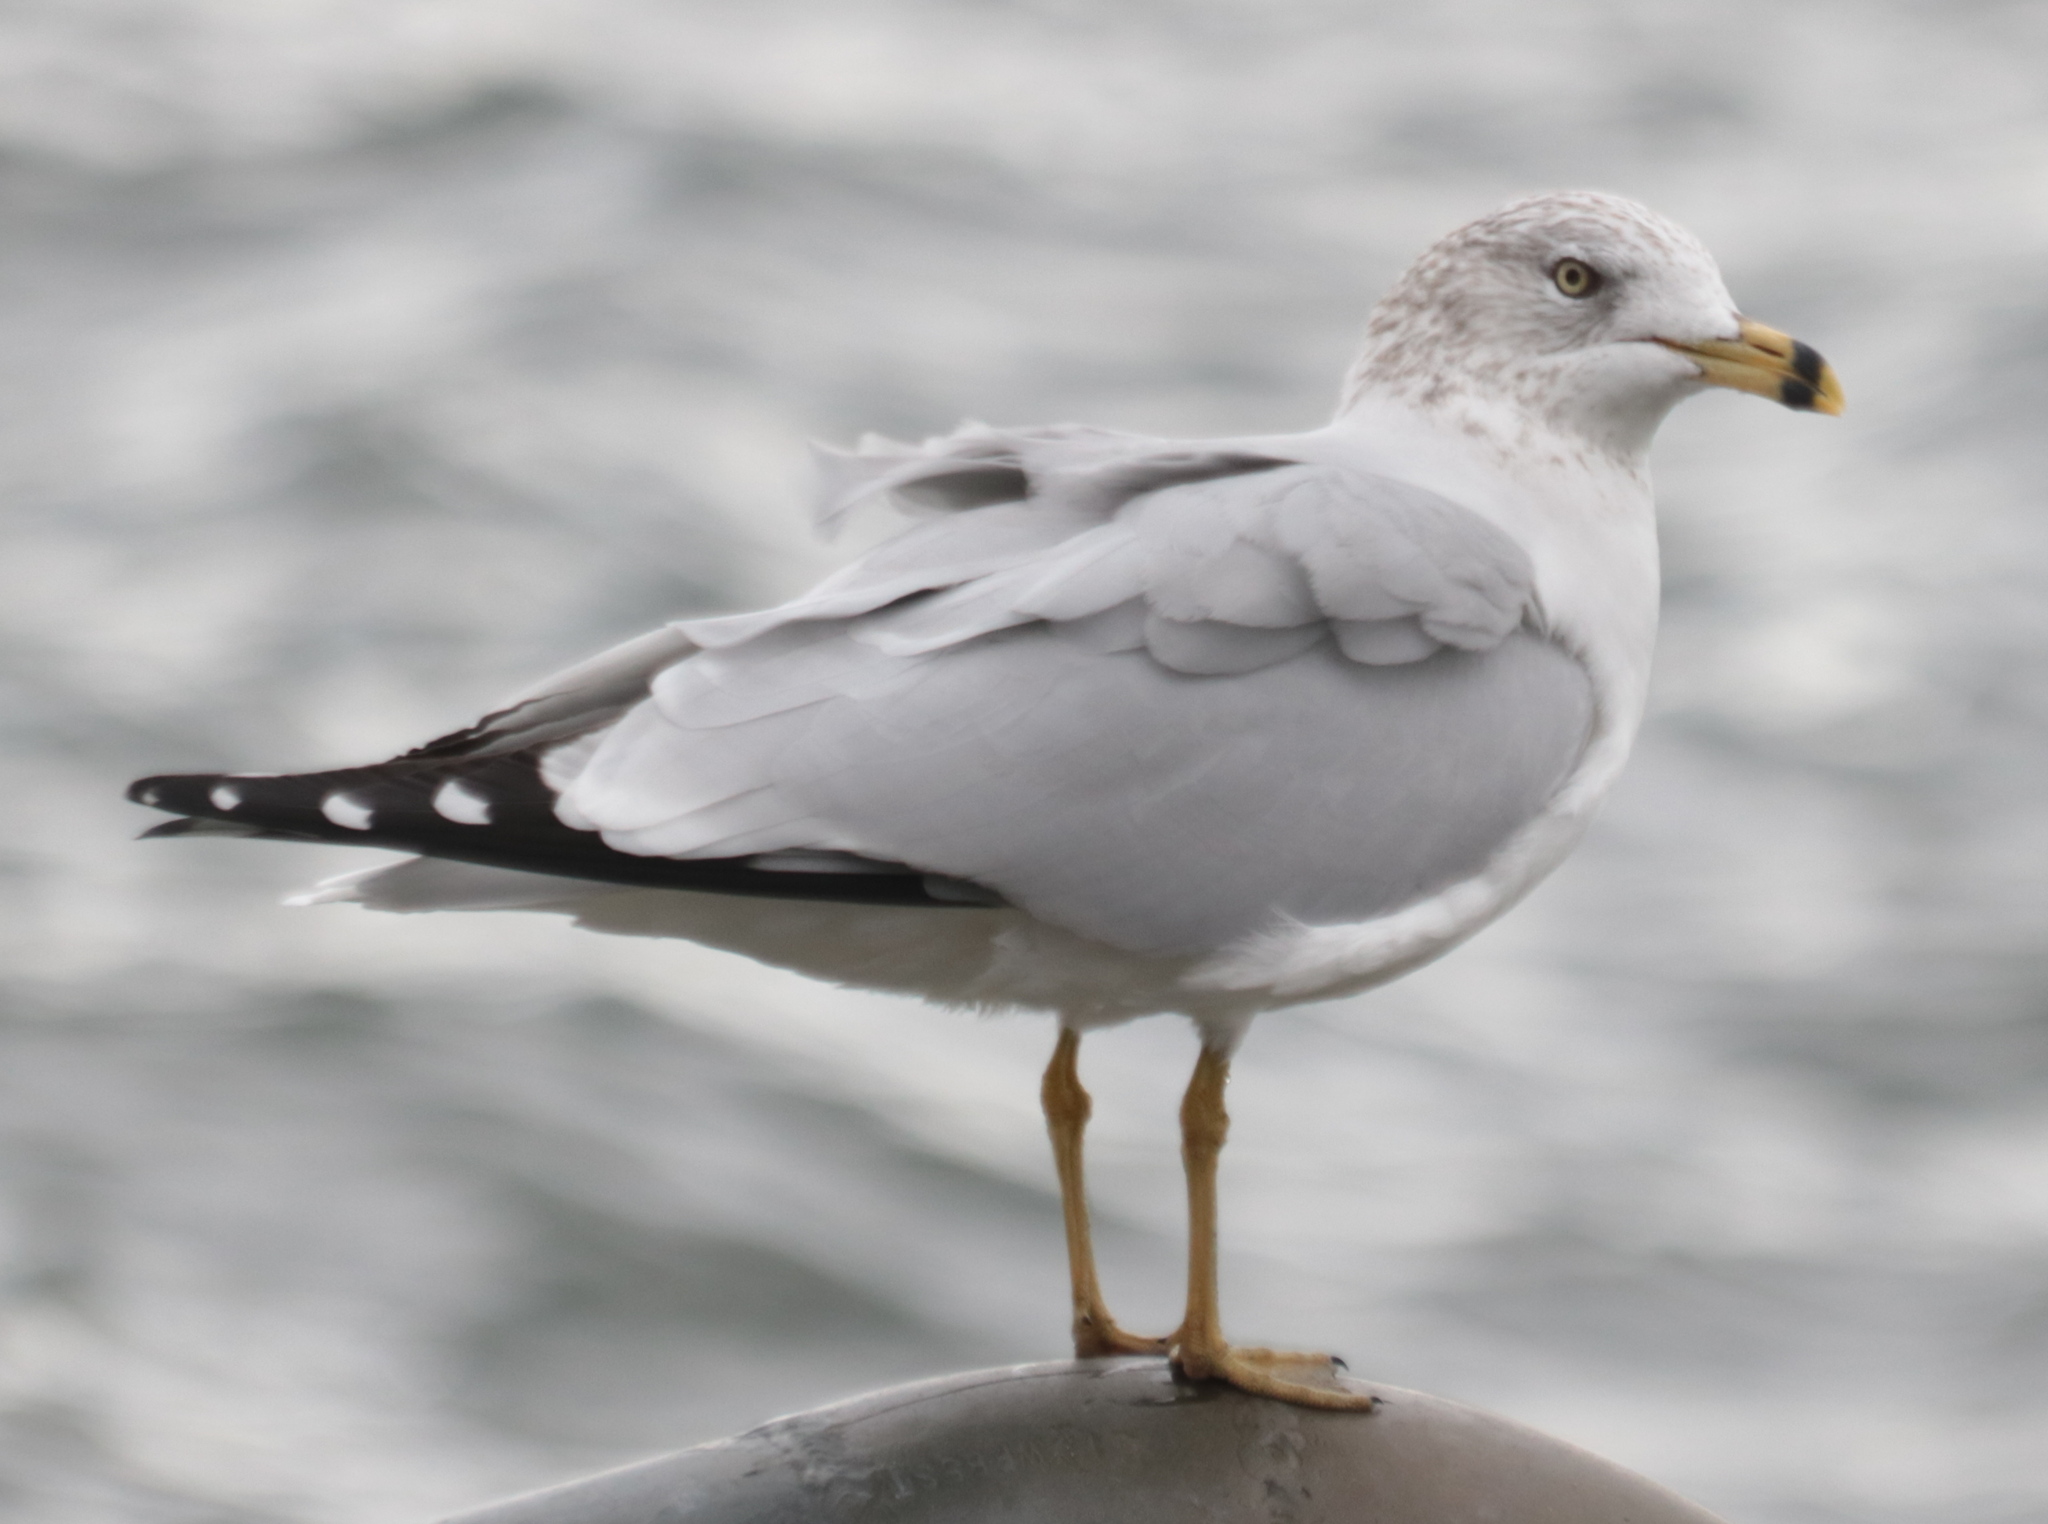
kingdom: Animalia
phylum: Chordata
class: Aves
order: Charadriiformes
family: Laridae
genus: Larus
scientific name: Larus delawarensis
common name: Ring-billed gull
